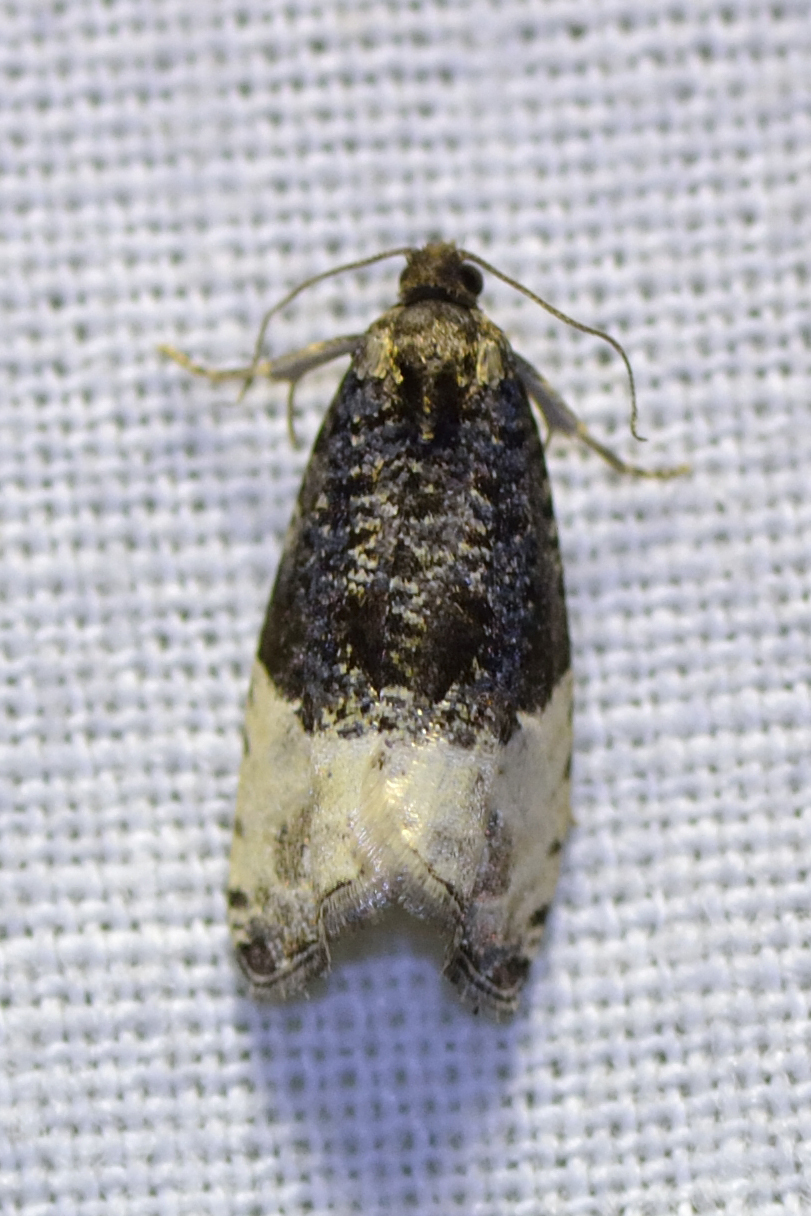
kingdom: Animalia
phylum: Arthropoda
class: Insecta
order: Lepidoptera
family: Tortricidae
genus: Hedya
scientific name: Hedya pruniana
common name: Plum tortrix
